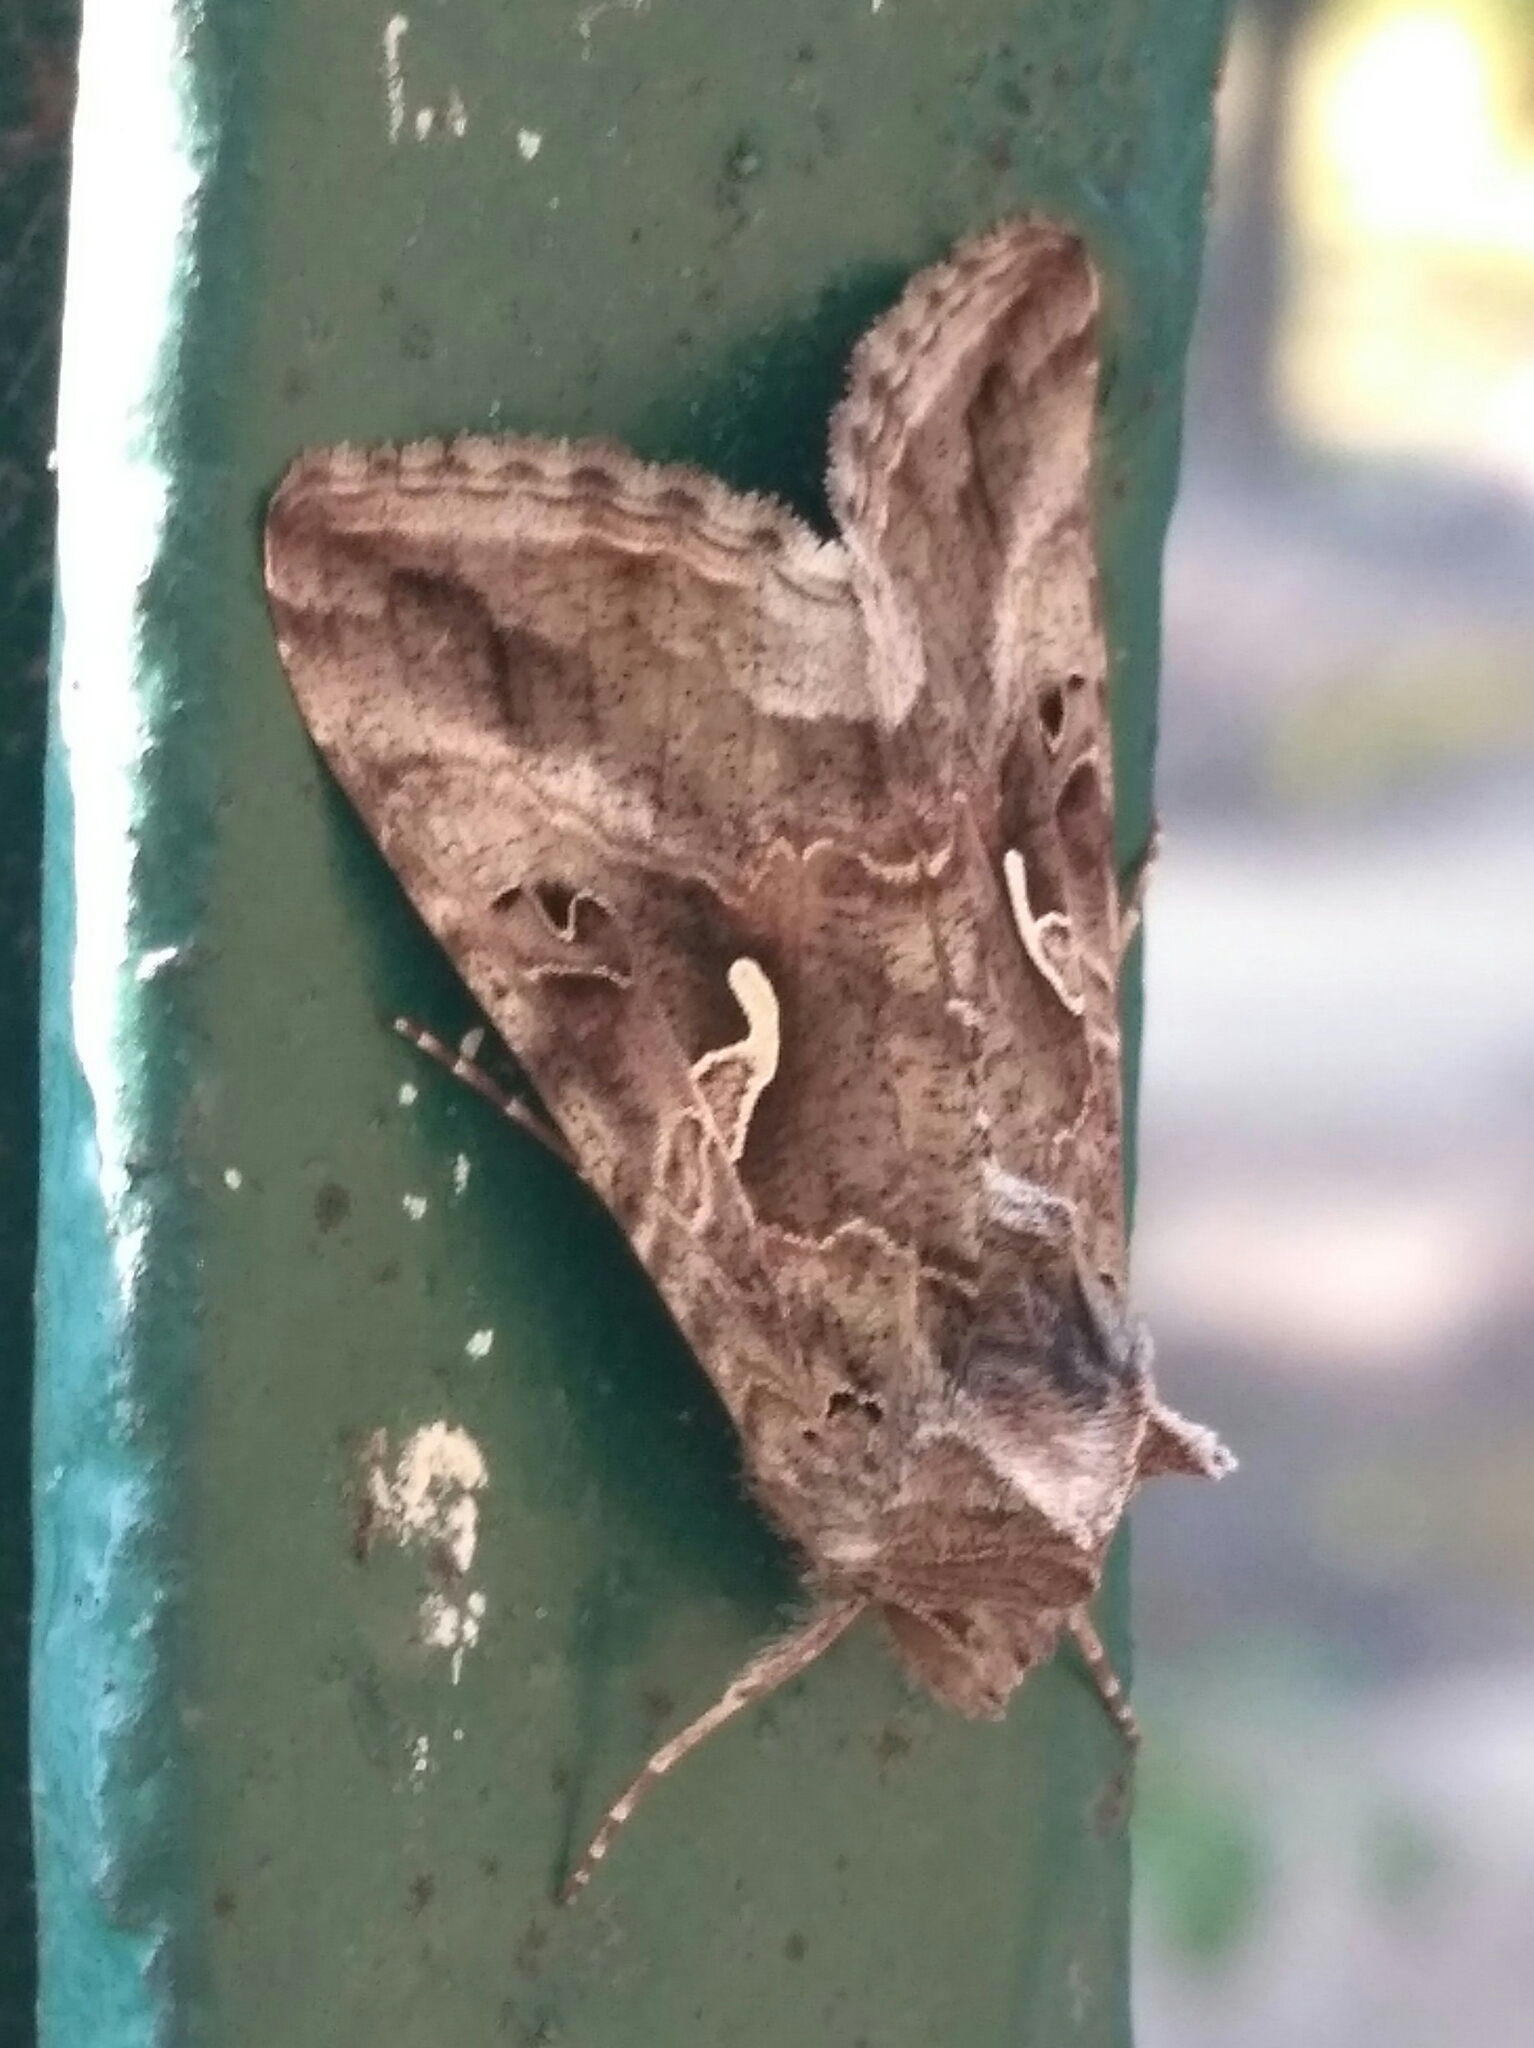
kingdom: Animalia
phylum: Arthropoda
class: Insecta
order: Lepidoptera
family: Noctuidae
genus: Autographa
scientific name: Autographa gamma
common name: Silver y
